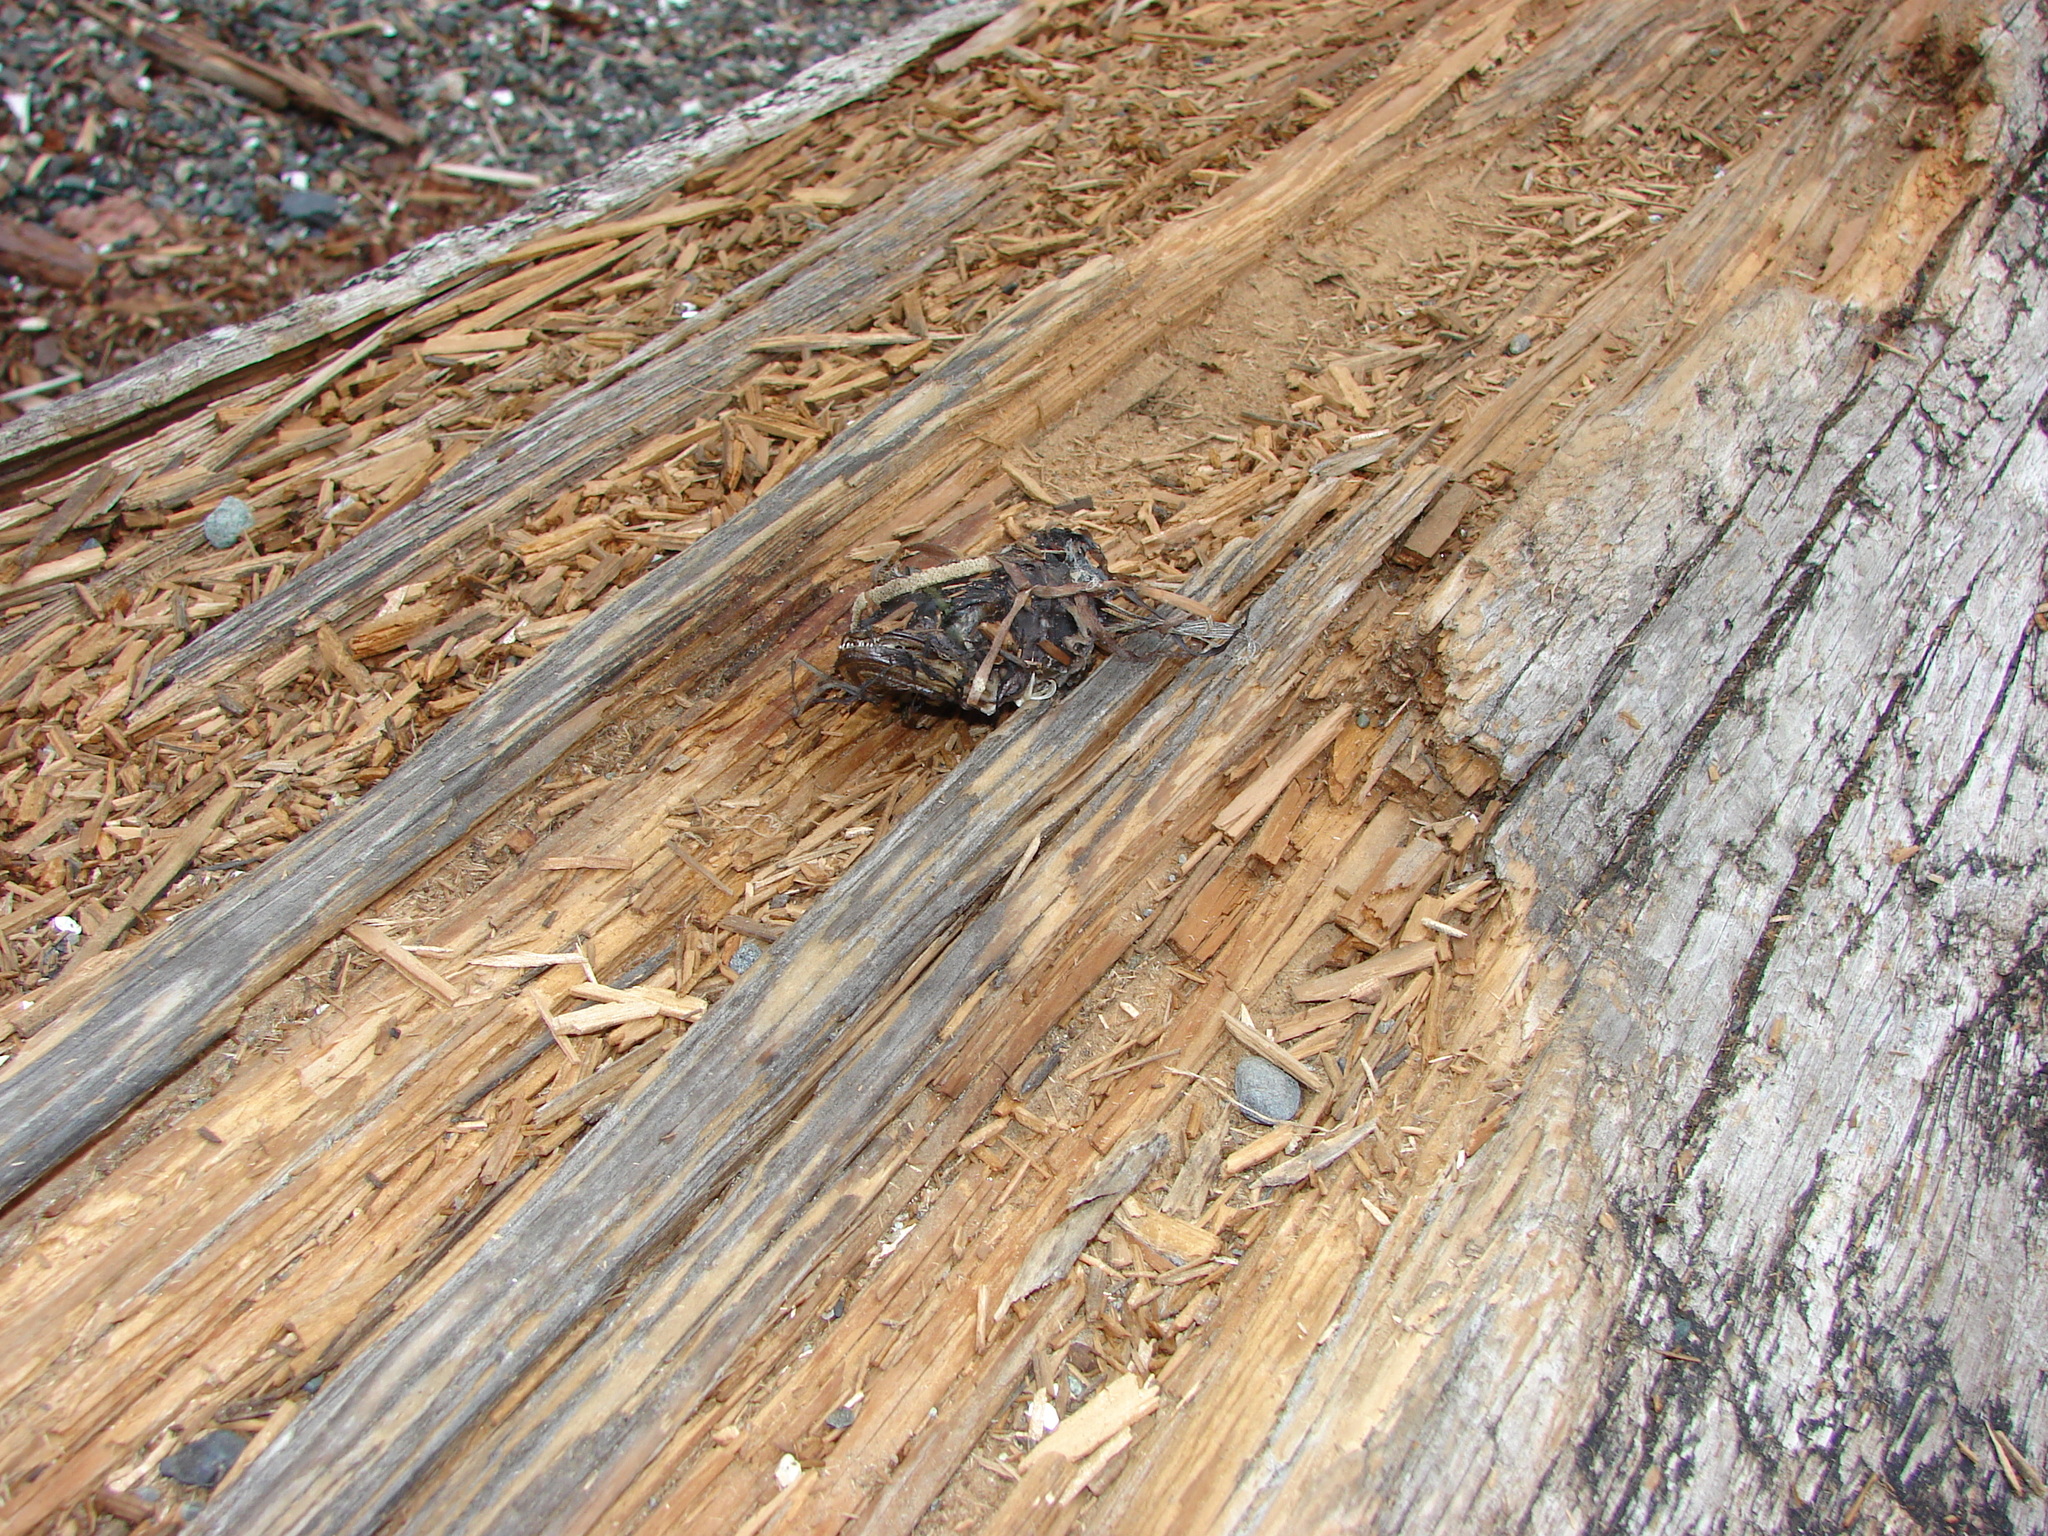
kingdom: Animalia
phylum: Chordata
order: Batrachoidiformes
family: Batrachoididae
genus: Porichthys
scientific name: Porichthys notatus
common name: Plainfin midshipman
